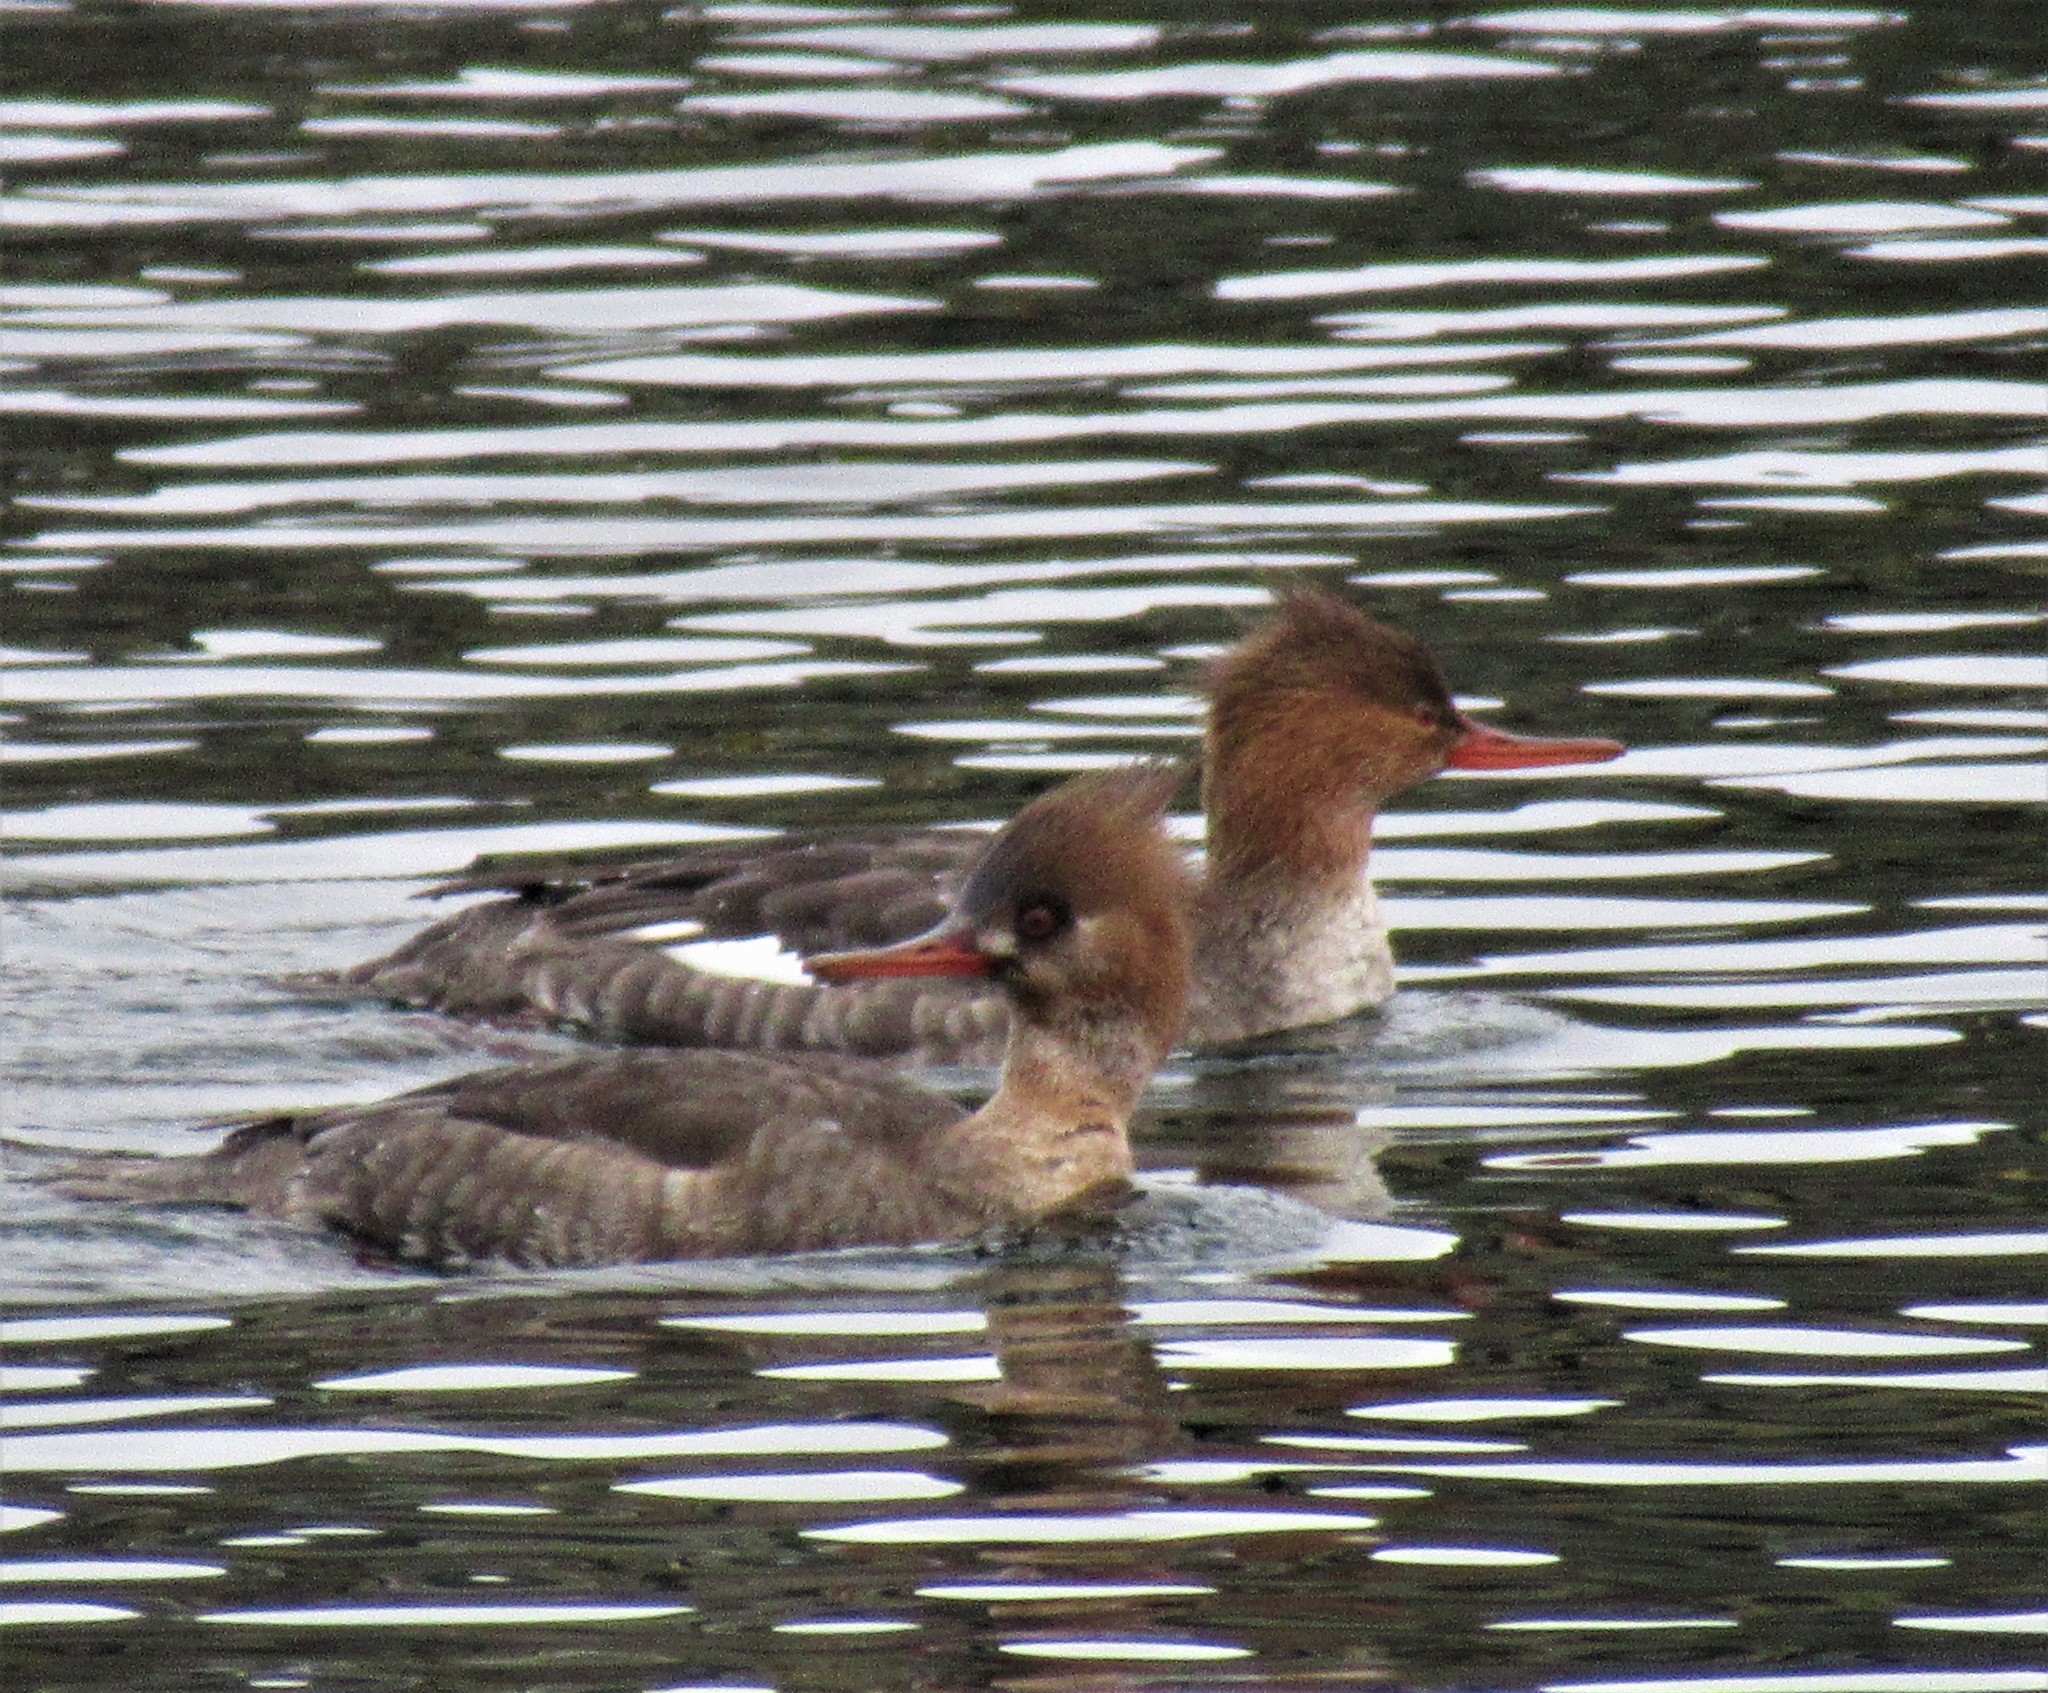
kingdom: Animalia
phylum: Chordata
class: Aves
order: Anseriformes
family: Anatidae
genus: Mergus
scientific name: Mergus serrator
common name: Red-breasted merganser
